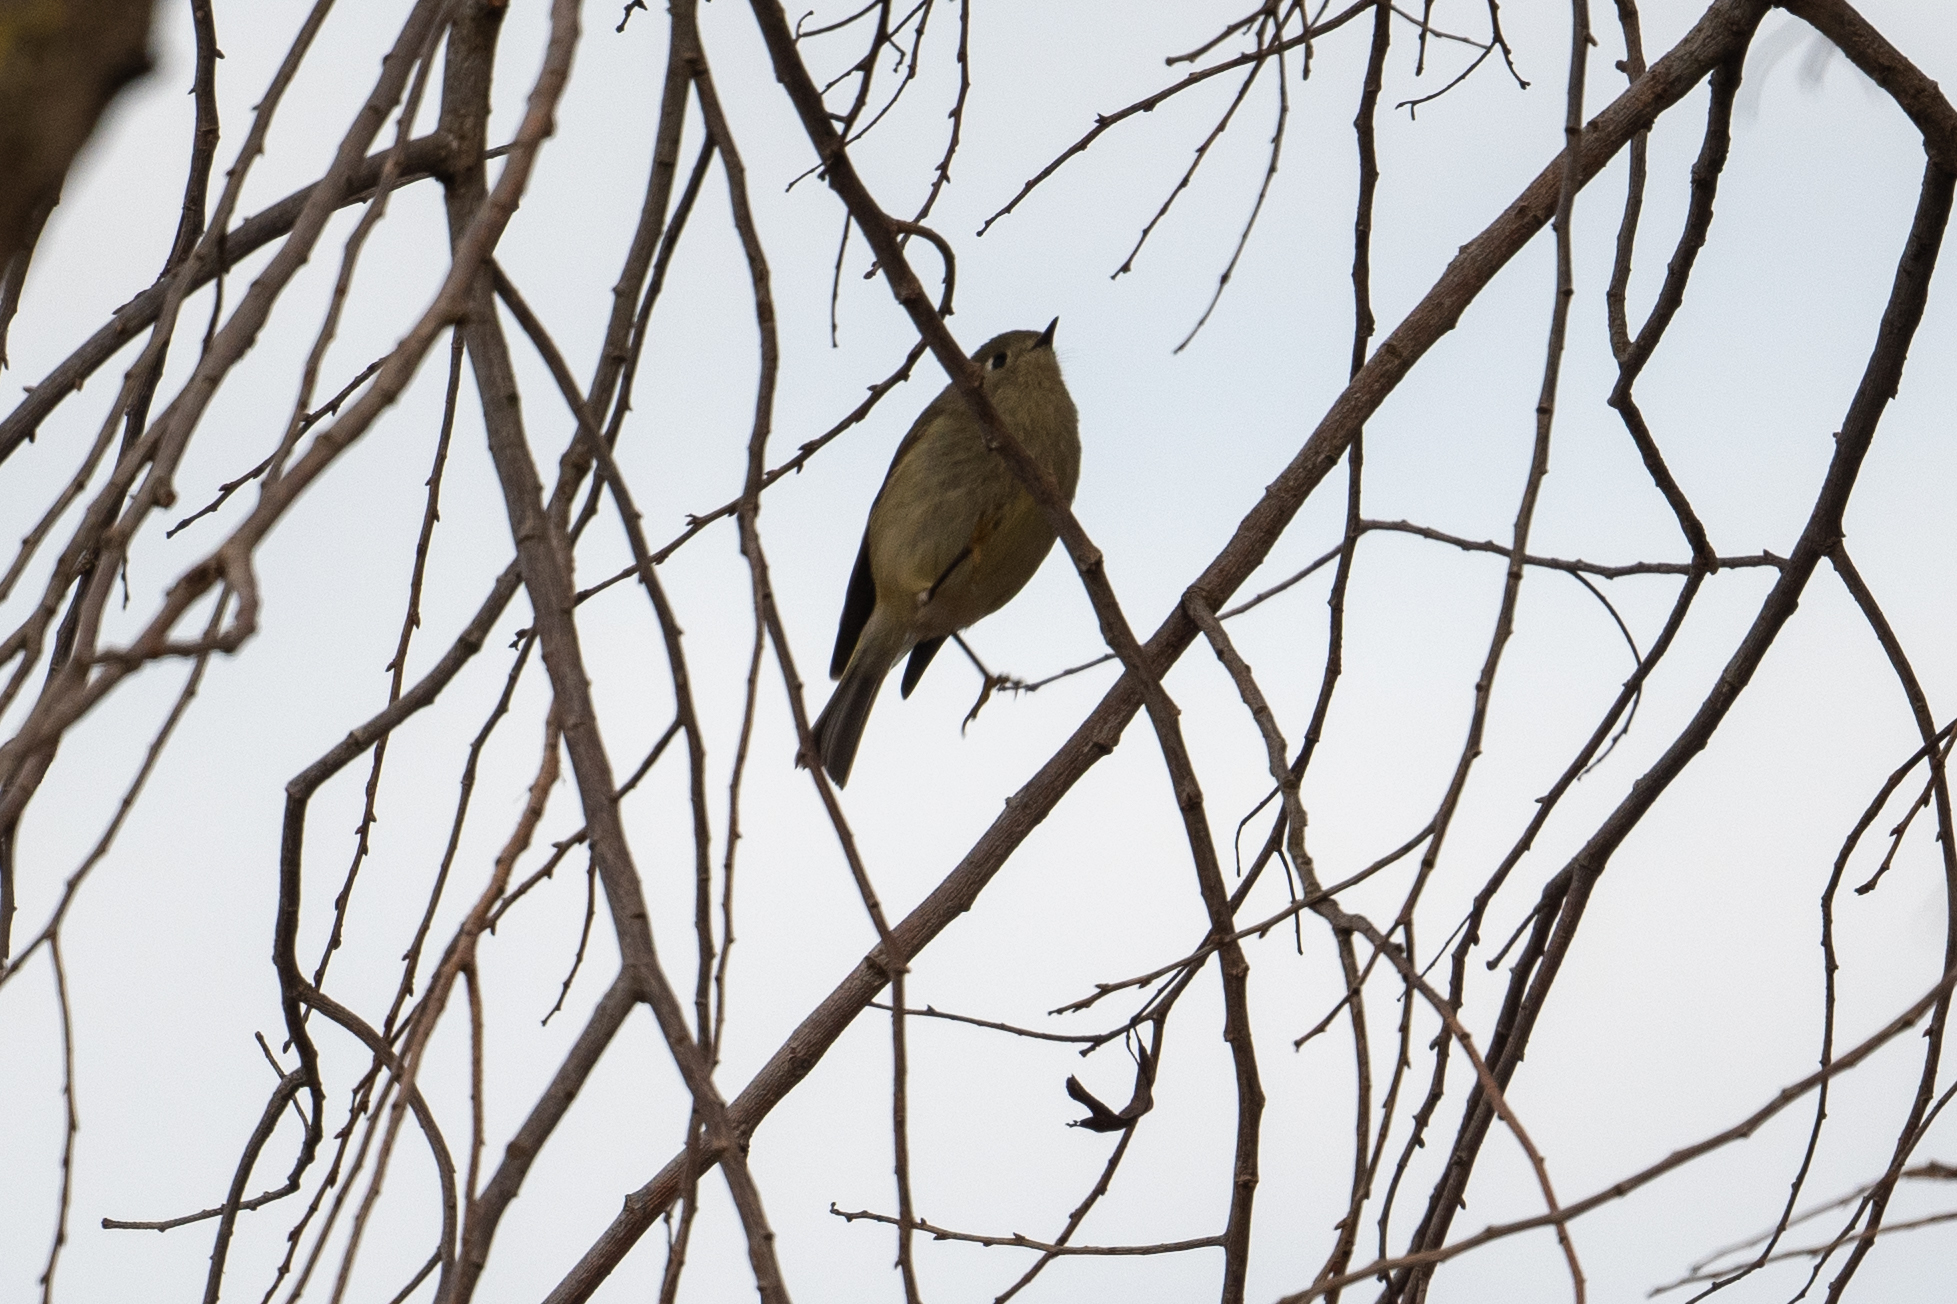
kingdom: Animalia
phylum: Chordata
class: Aves
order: Passeriformes
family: Regulidae
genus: Regulus
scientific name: Regulus calendula
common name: Ruby-crowned kinglet
